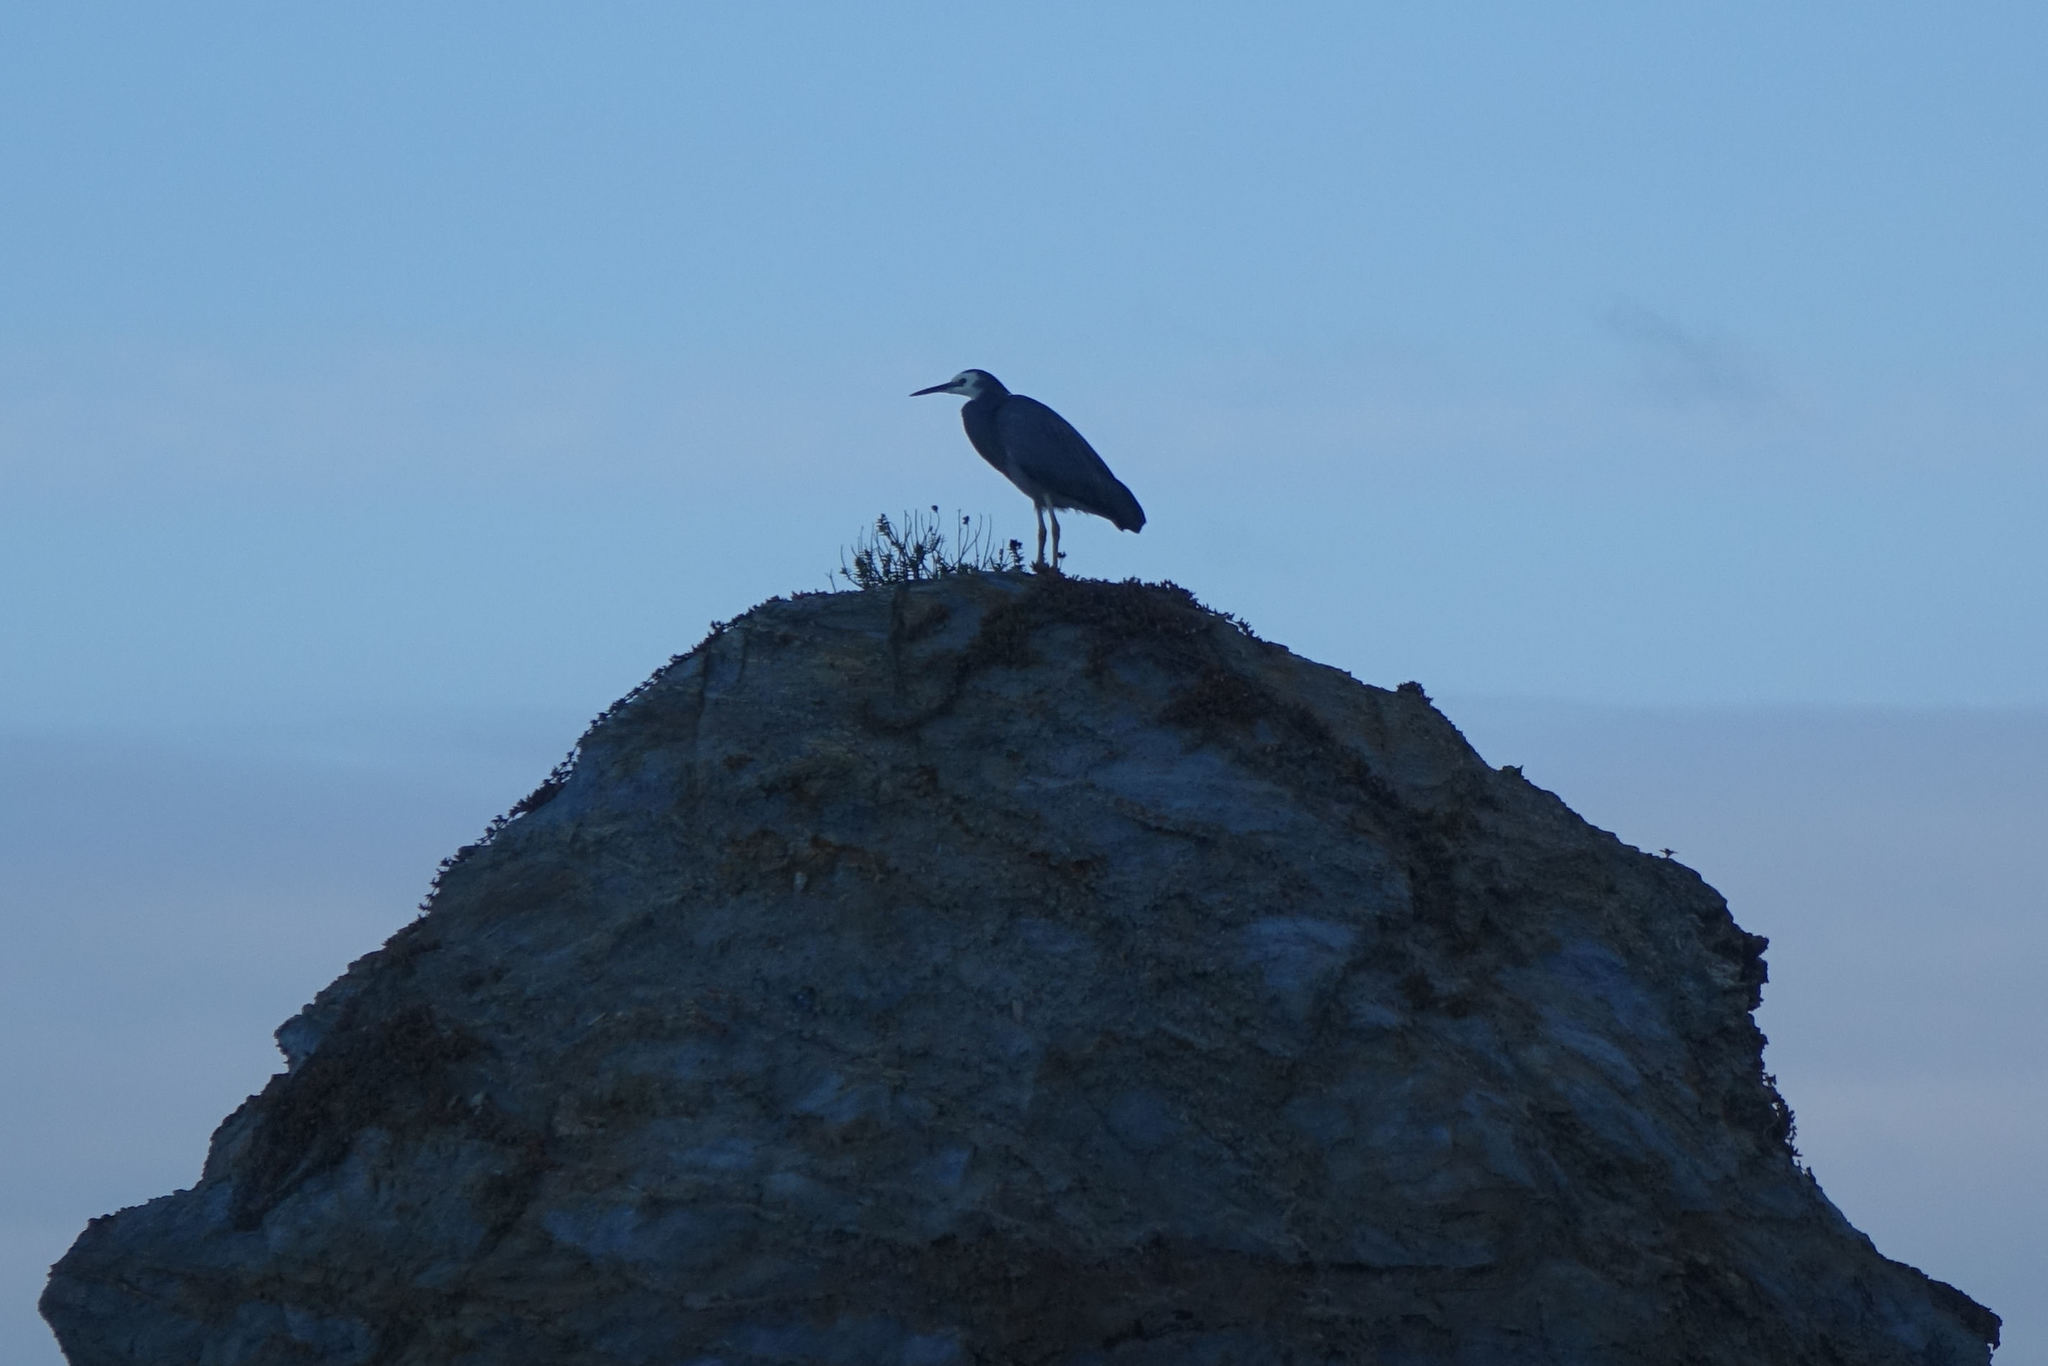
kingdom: Animalia
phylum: Chordata
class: Aves
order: Pelecaniformes
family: Ardeidae
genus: Egretta
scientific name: Egretta novaehollandiae
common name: White-faced heron
